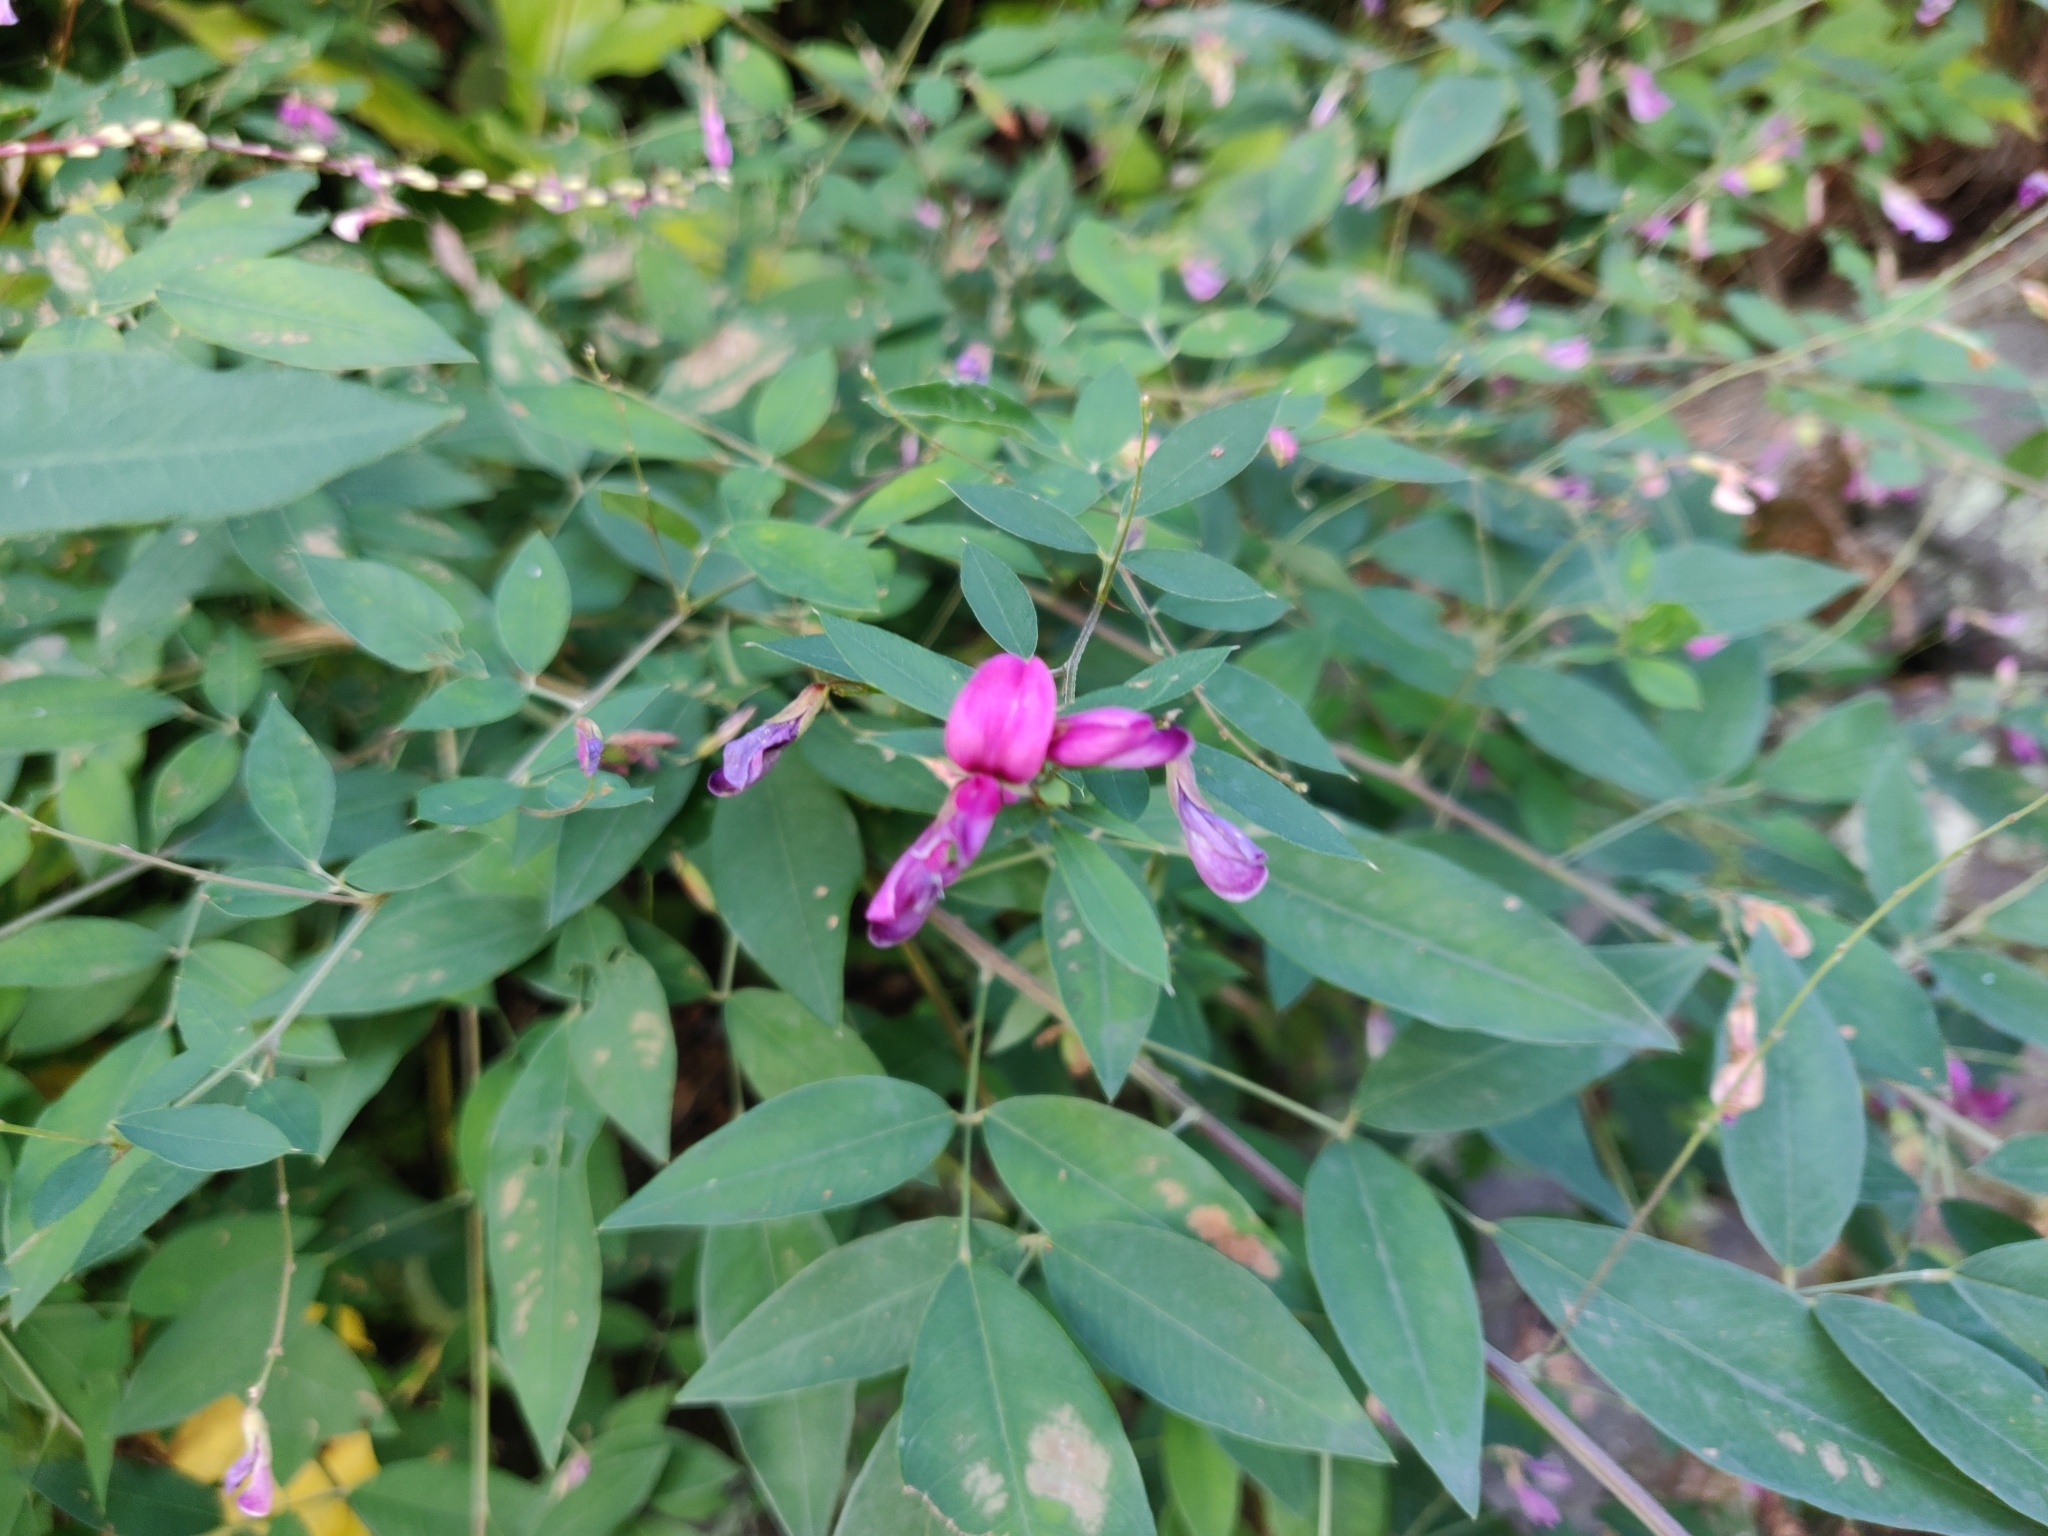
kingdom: Plantae
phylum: Tracheophyta
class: Magnoliopsida
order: Fabales
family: Fabaceae
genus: Lespedeza
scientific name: Lespedeza bicolor
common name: Shrub lespedeza
